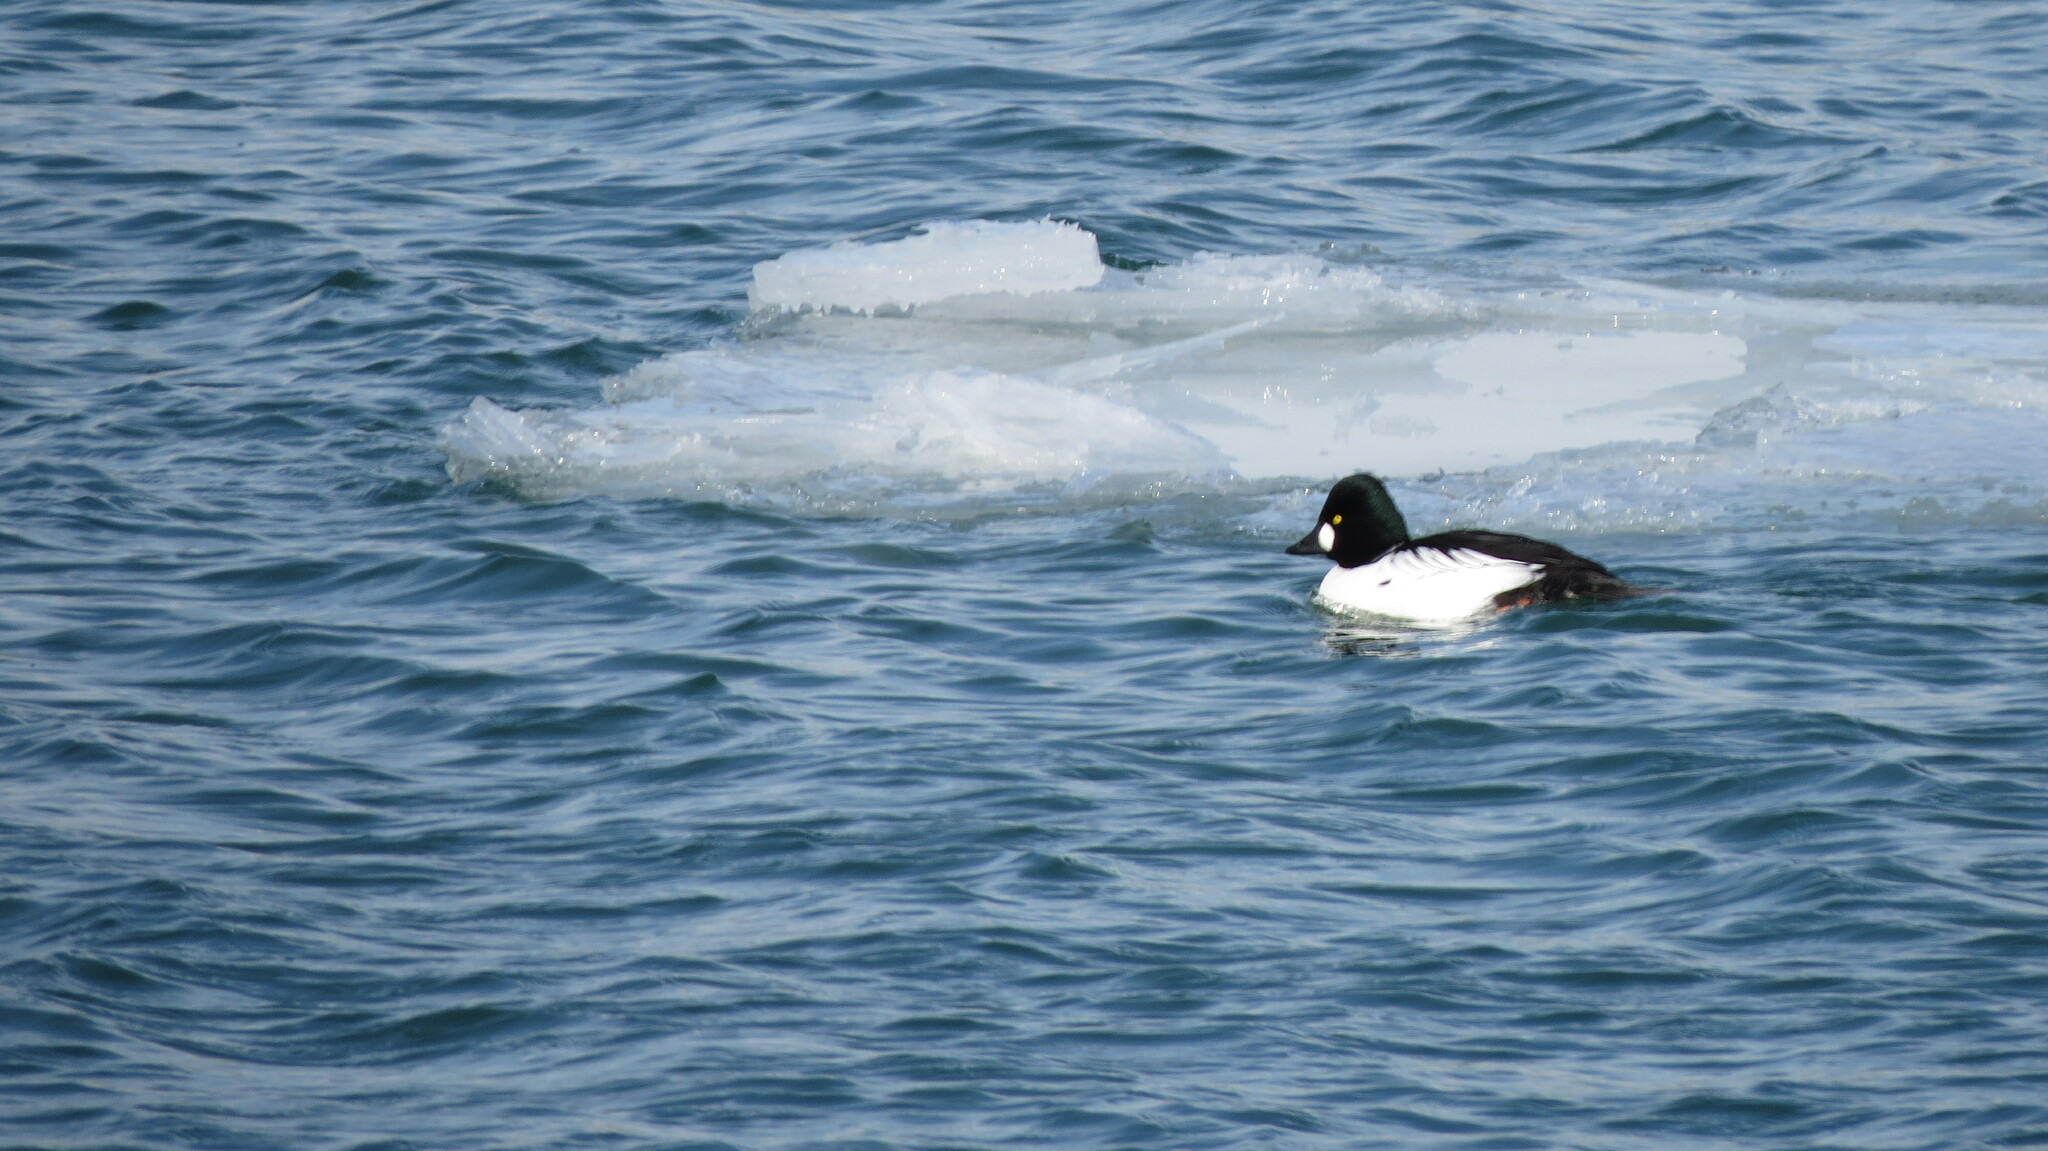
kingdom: Animalia
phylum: Chordata
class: Aves
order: Anseriformes
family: Anatidae
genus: Bucephala
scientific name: Bucephala clangula
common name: Common goldeneye
